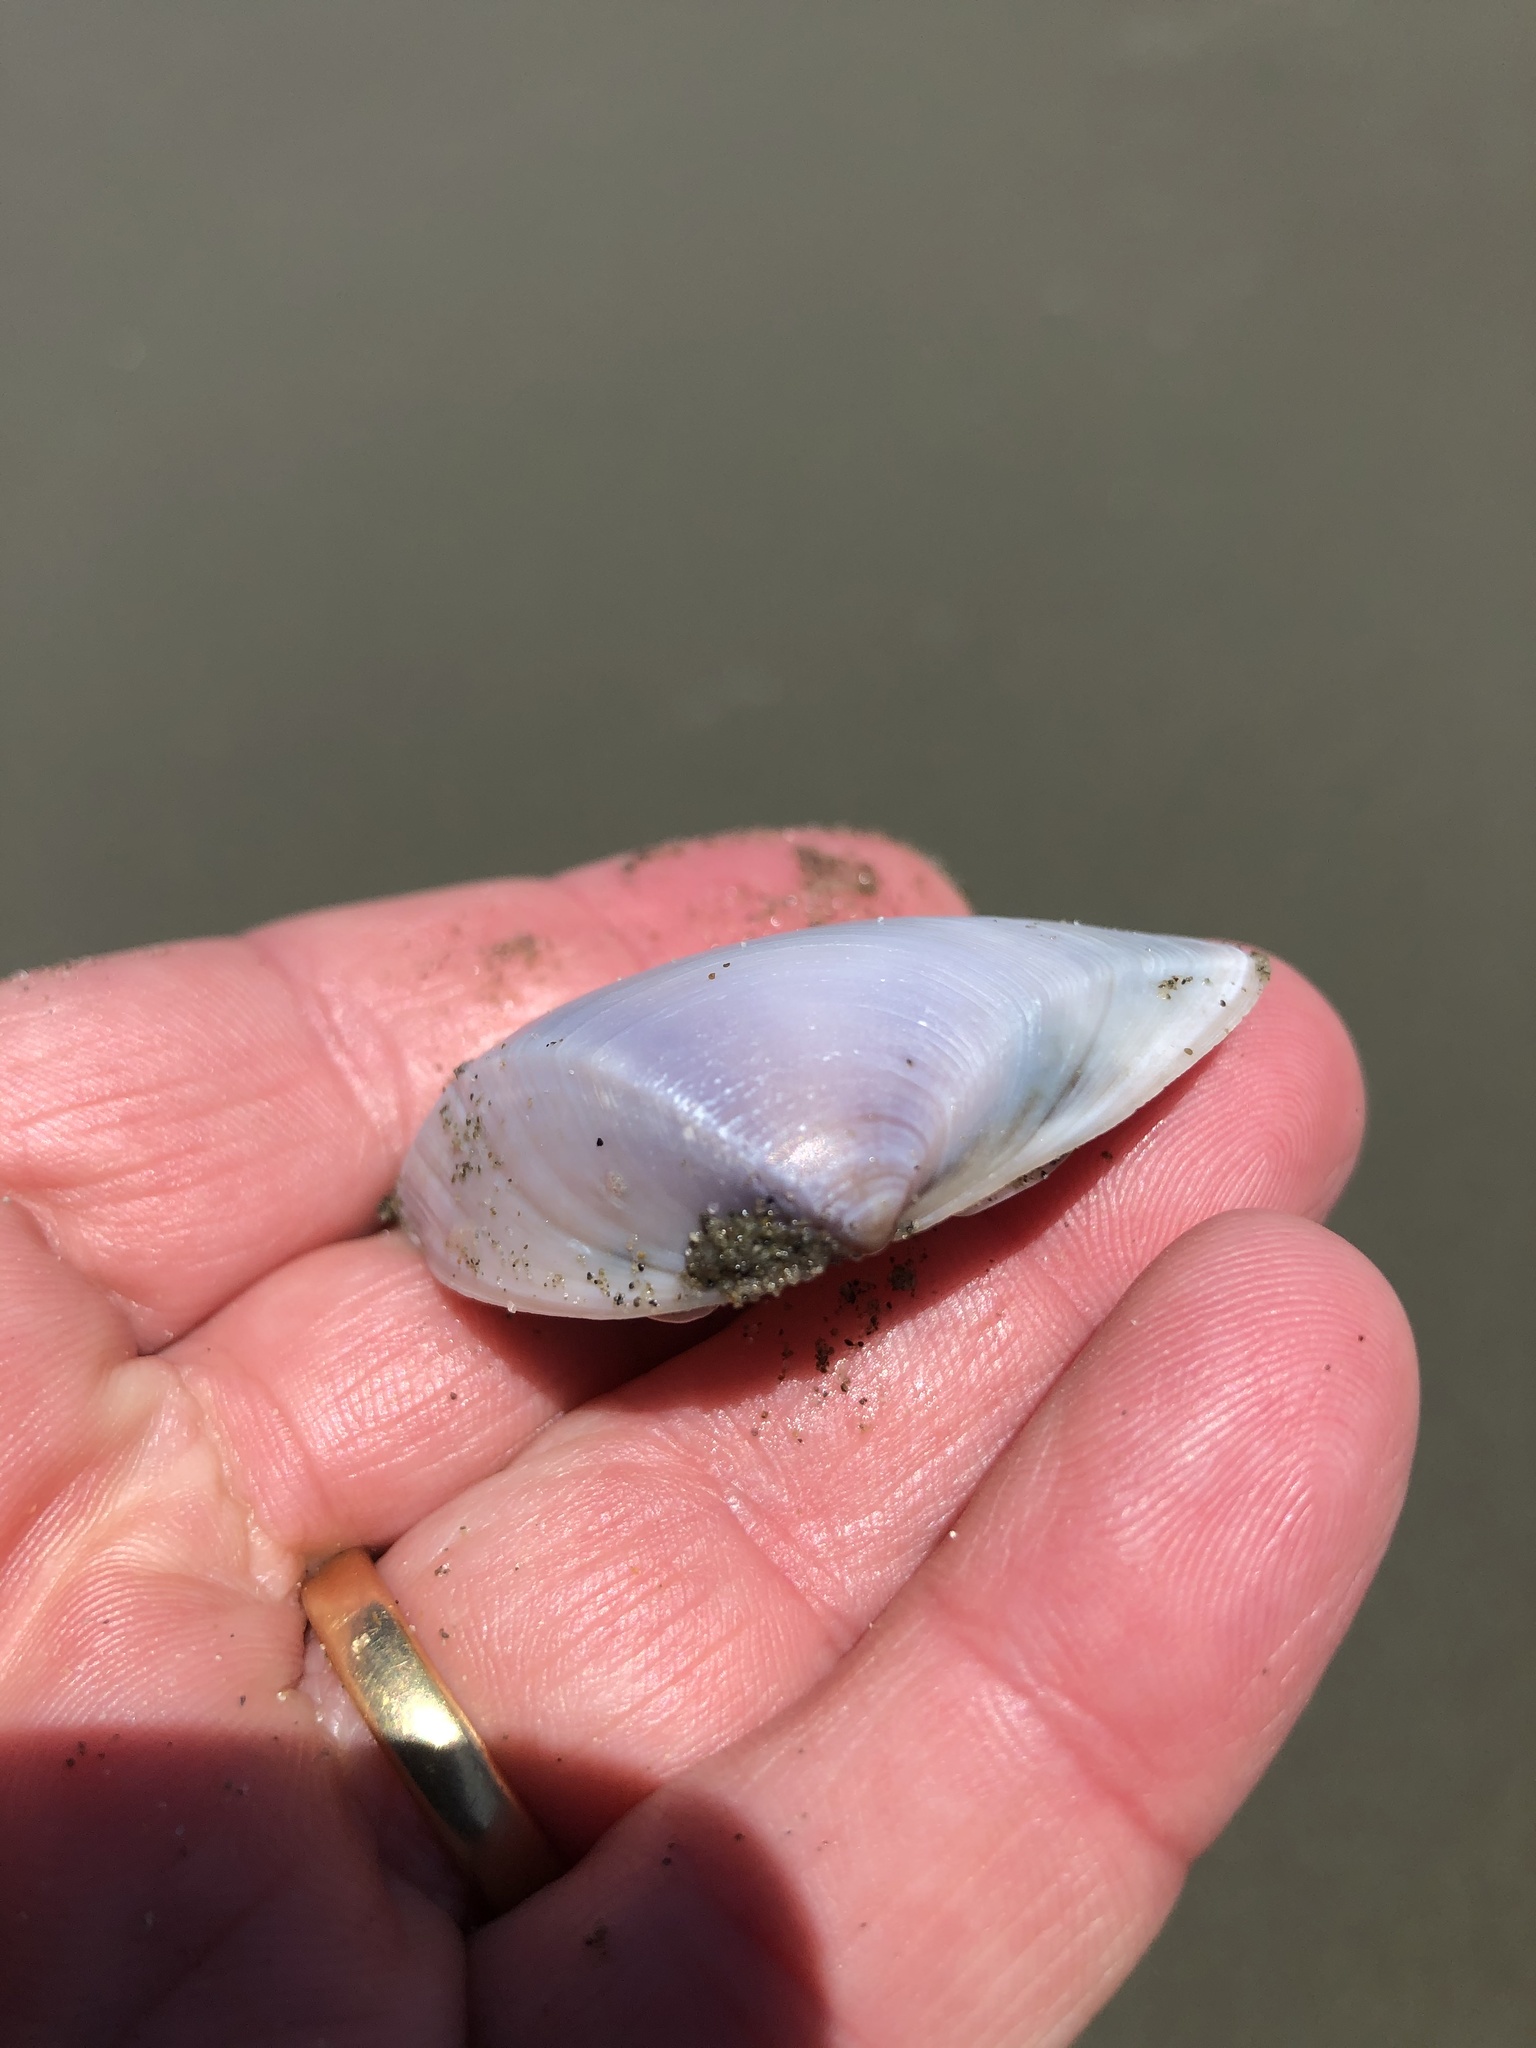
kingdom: Animalia
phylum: Mollusca
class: Bivalvia
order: Venerida
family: Mactridae
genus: Crassula
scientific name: Crassula aequilatera
